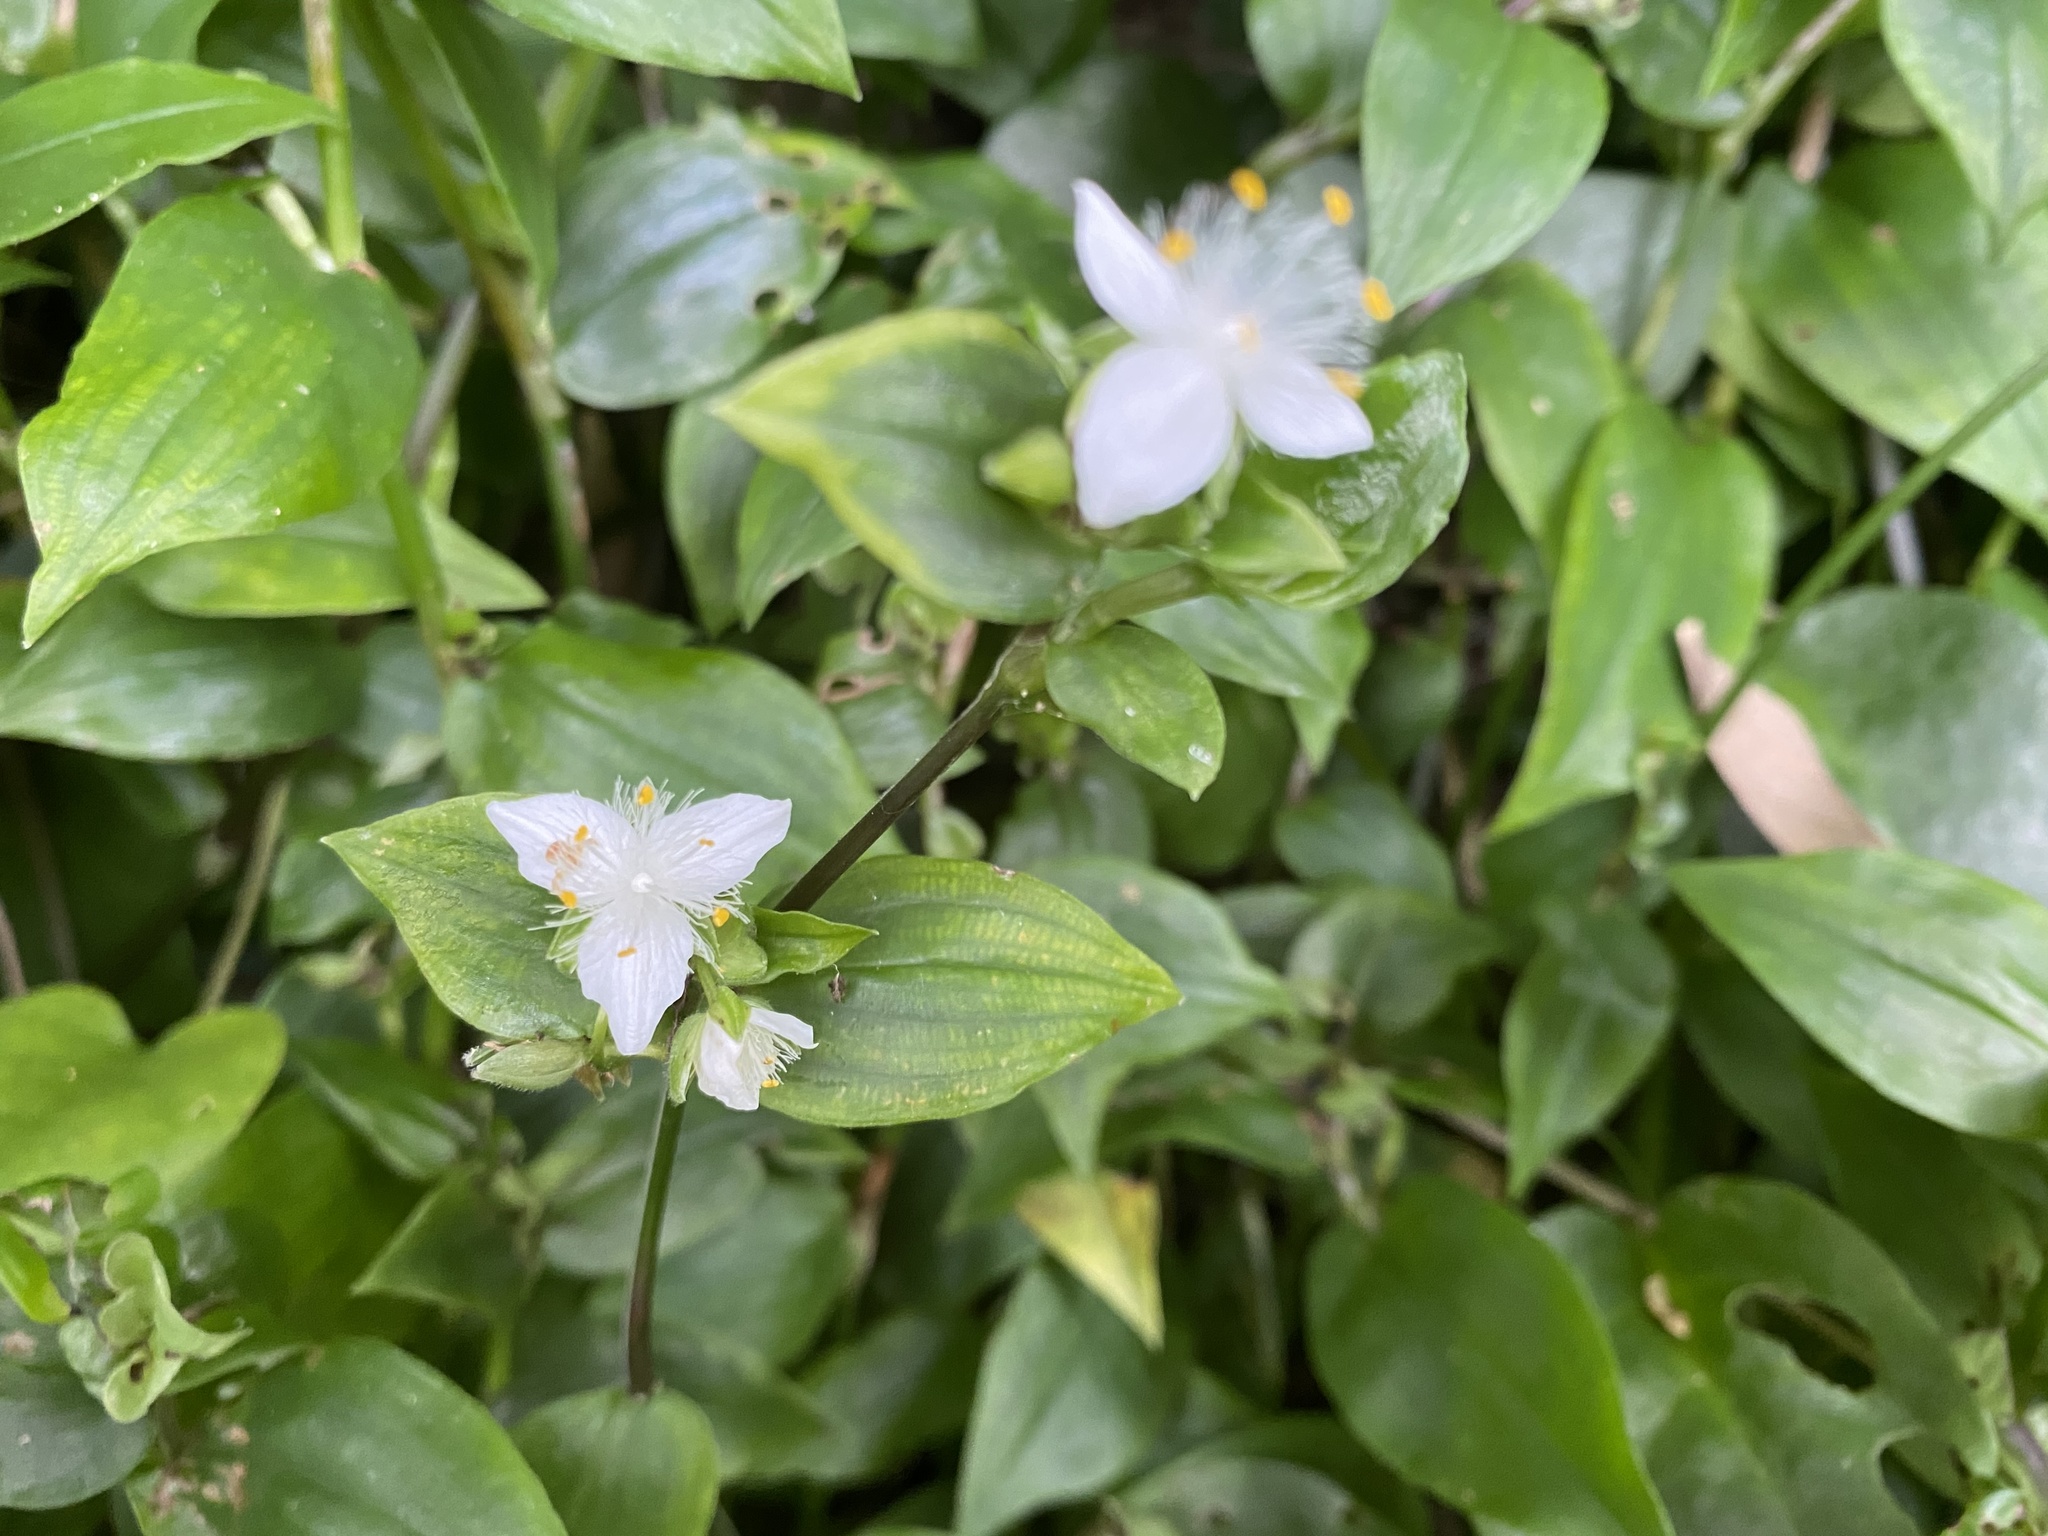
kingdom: Plantae
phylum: Tracheophyta
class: Liliopsida
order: Commelinales
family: Commelinaceae
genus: Tradescantia
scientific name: Tradescantia fluminensis
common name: Wandering-jew
